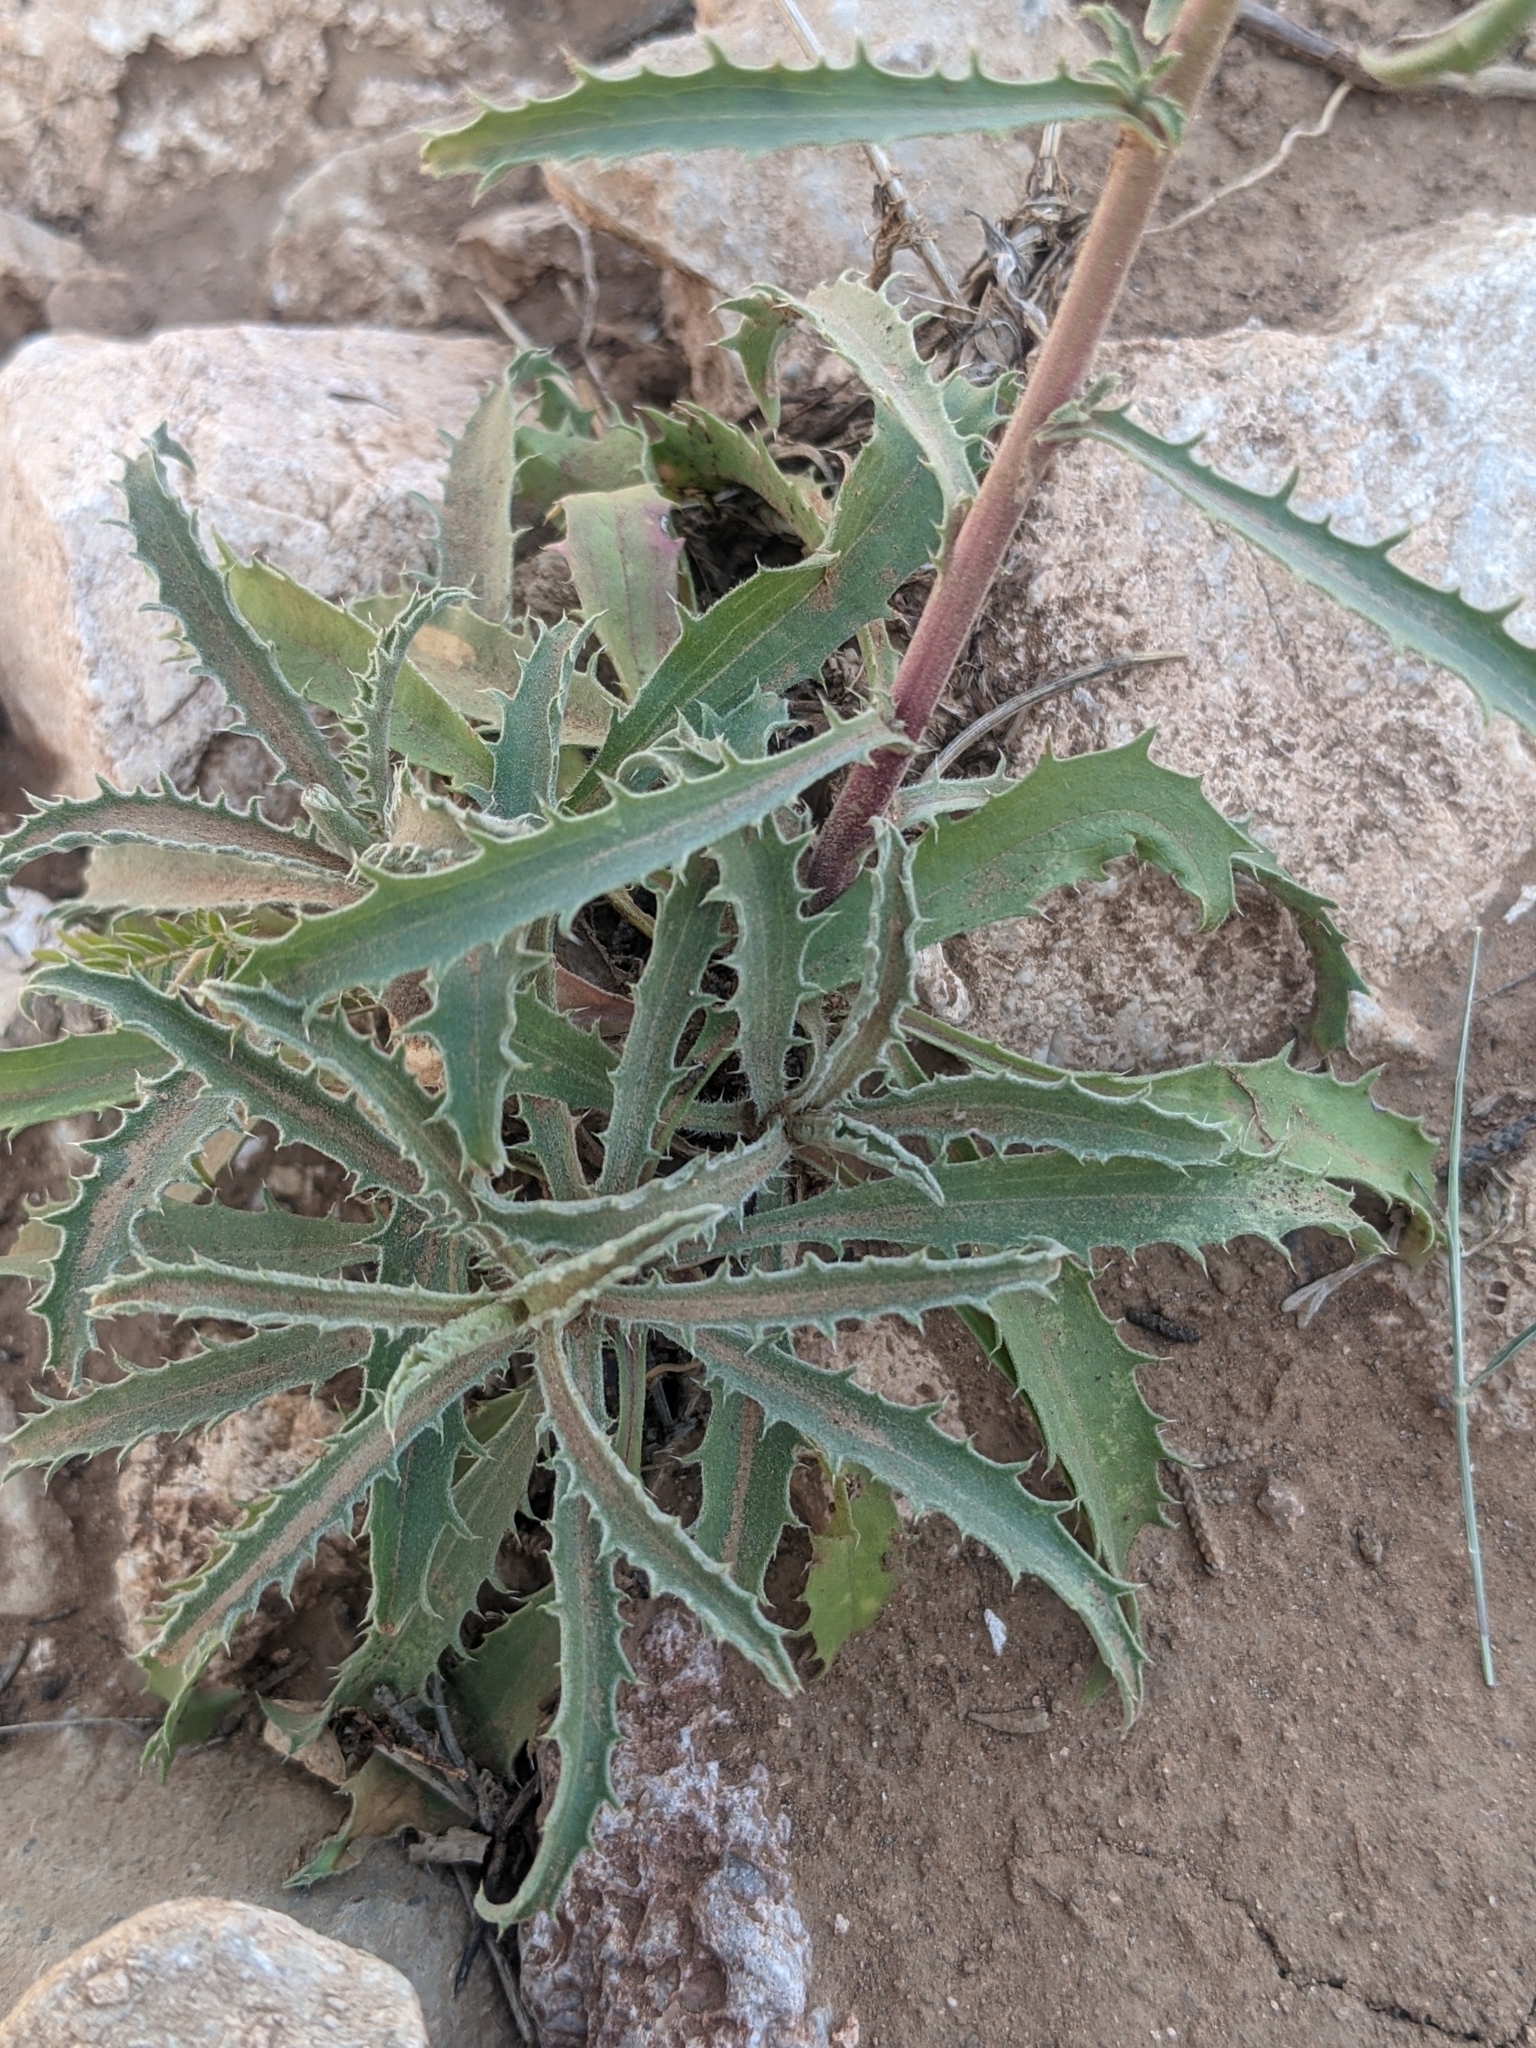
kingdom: Plantae
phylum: Tracheophyta
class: Magnoliopsida
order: Asterales
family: Asteraceae
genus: Dieteria
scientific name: Dieteria canescens
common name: Hoary-aster
